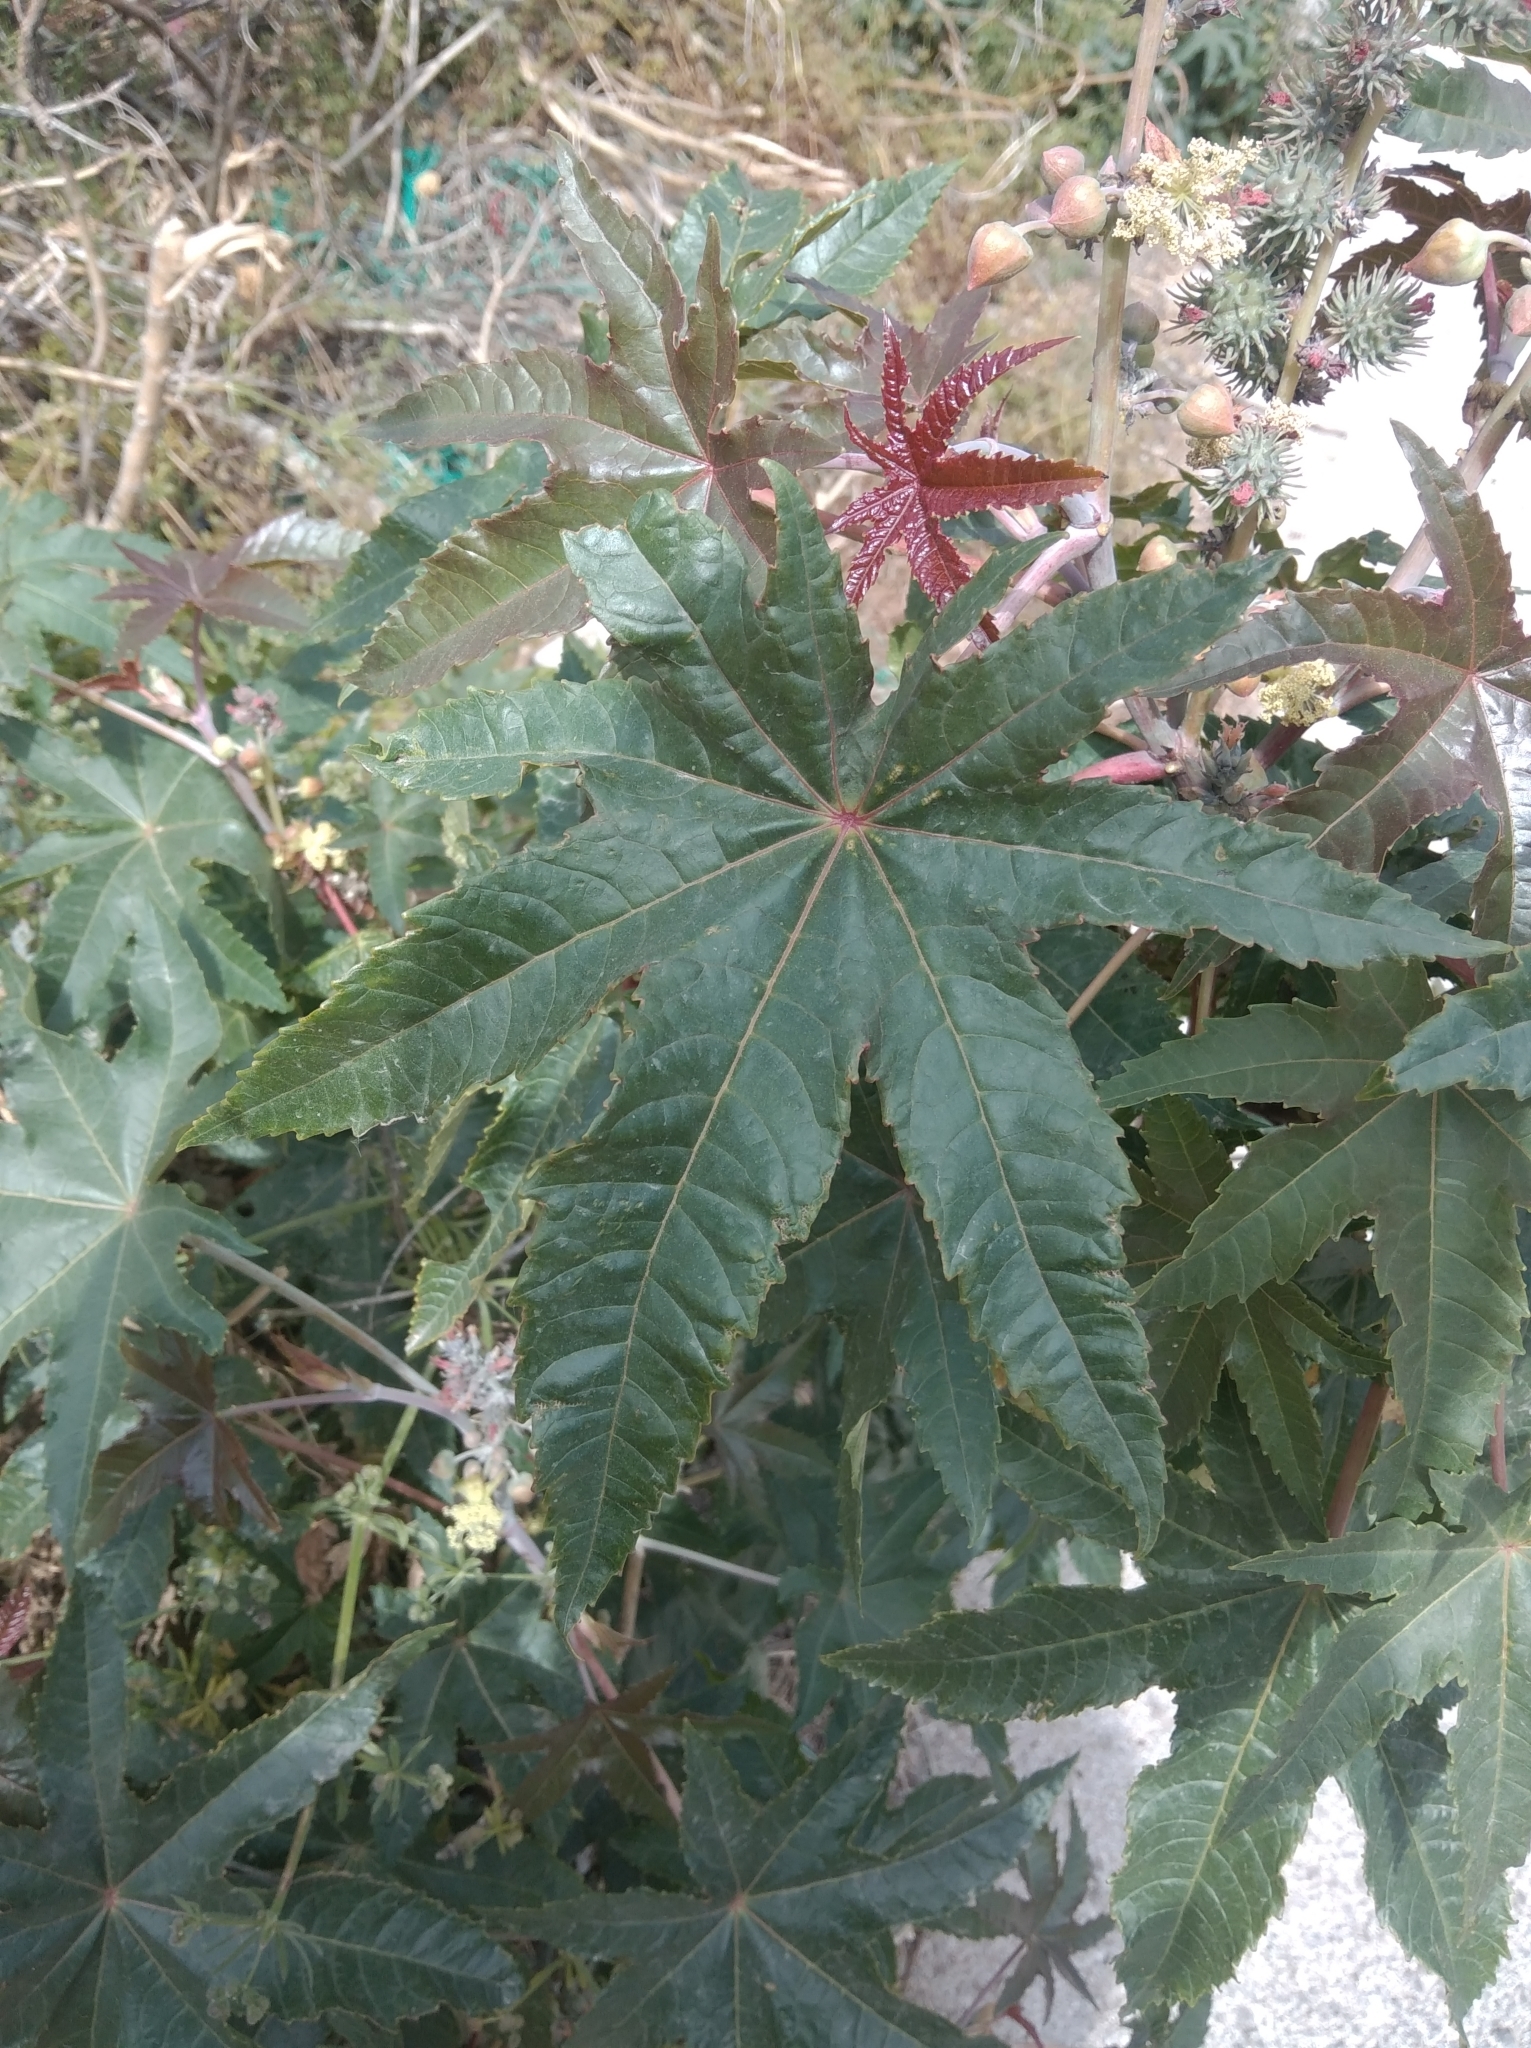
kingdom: Plantae
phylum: Tracheophyta
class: Magnoliopsida
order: Malpighiales
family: Euphorbiaceae
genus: Ricinus
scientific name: Ricinus communis
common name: Castor-oil-plant
